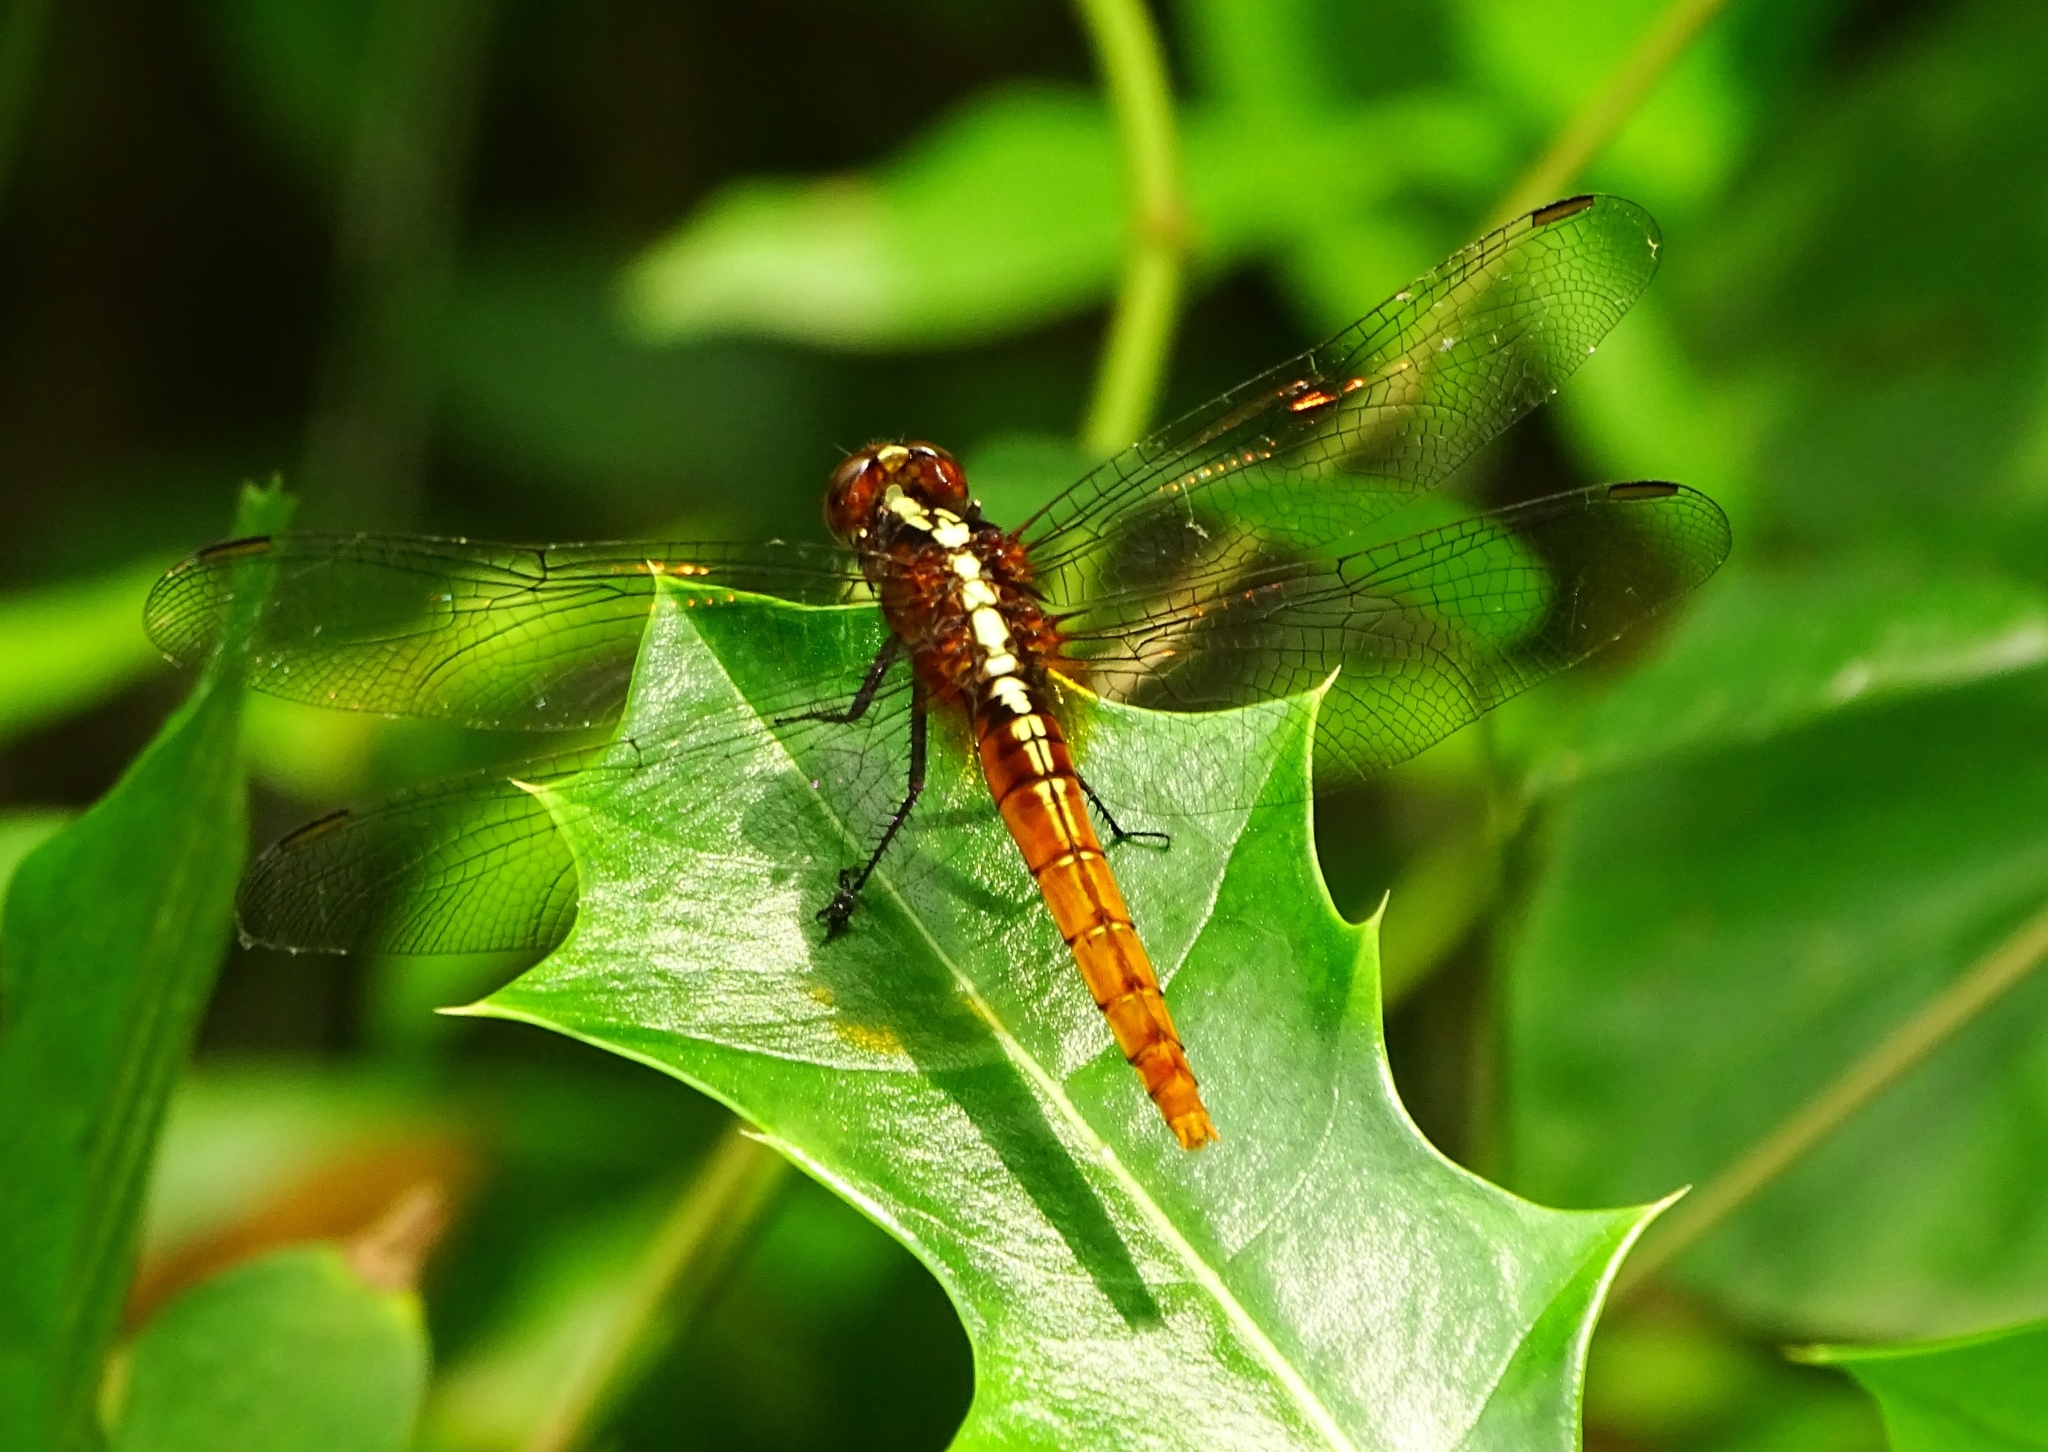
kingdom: Animalia
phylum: Arthropoda
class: Insecta
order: Odonata
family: Libellulidae
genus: Rhodothemis
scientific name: Rhodothemis rufa
